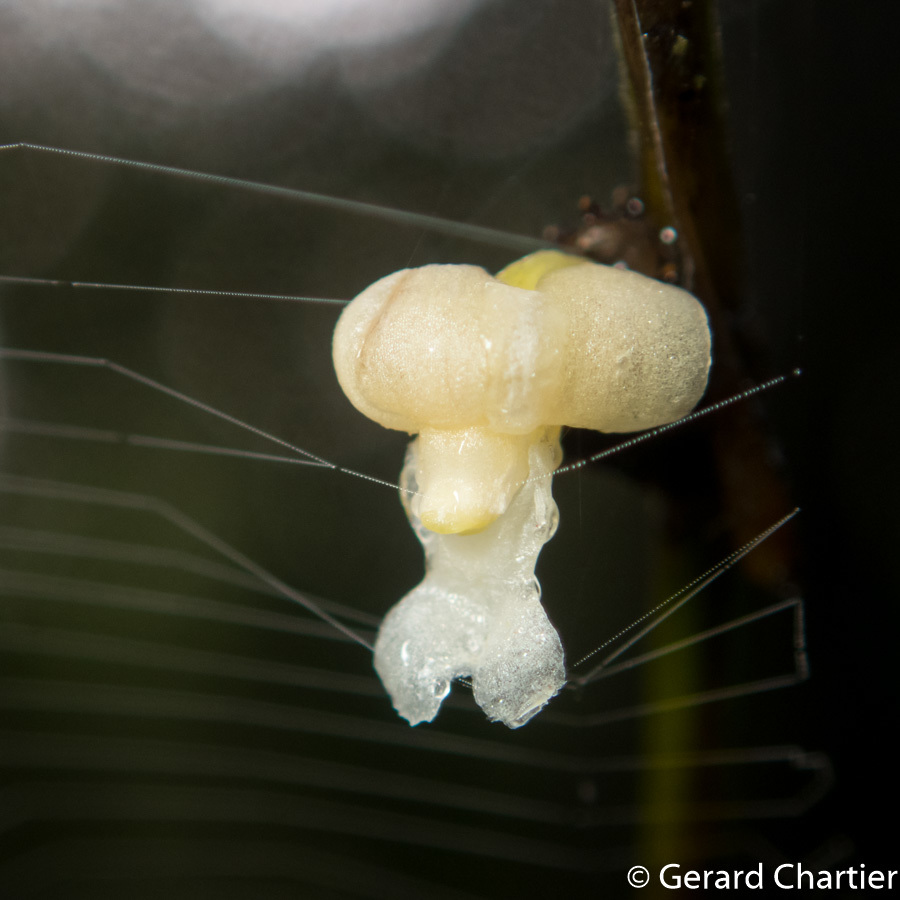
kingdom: Plantae
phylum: Tracheophyta
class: Liliopsida
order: Asparagales
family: Orchidaceae
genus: Dendrobium
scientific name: Dendrobium aloifolium
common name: Aloe-like dendrobium
